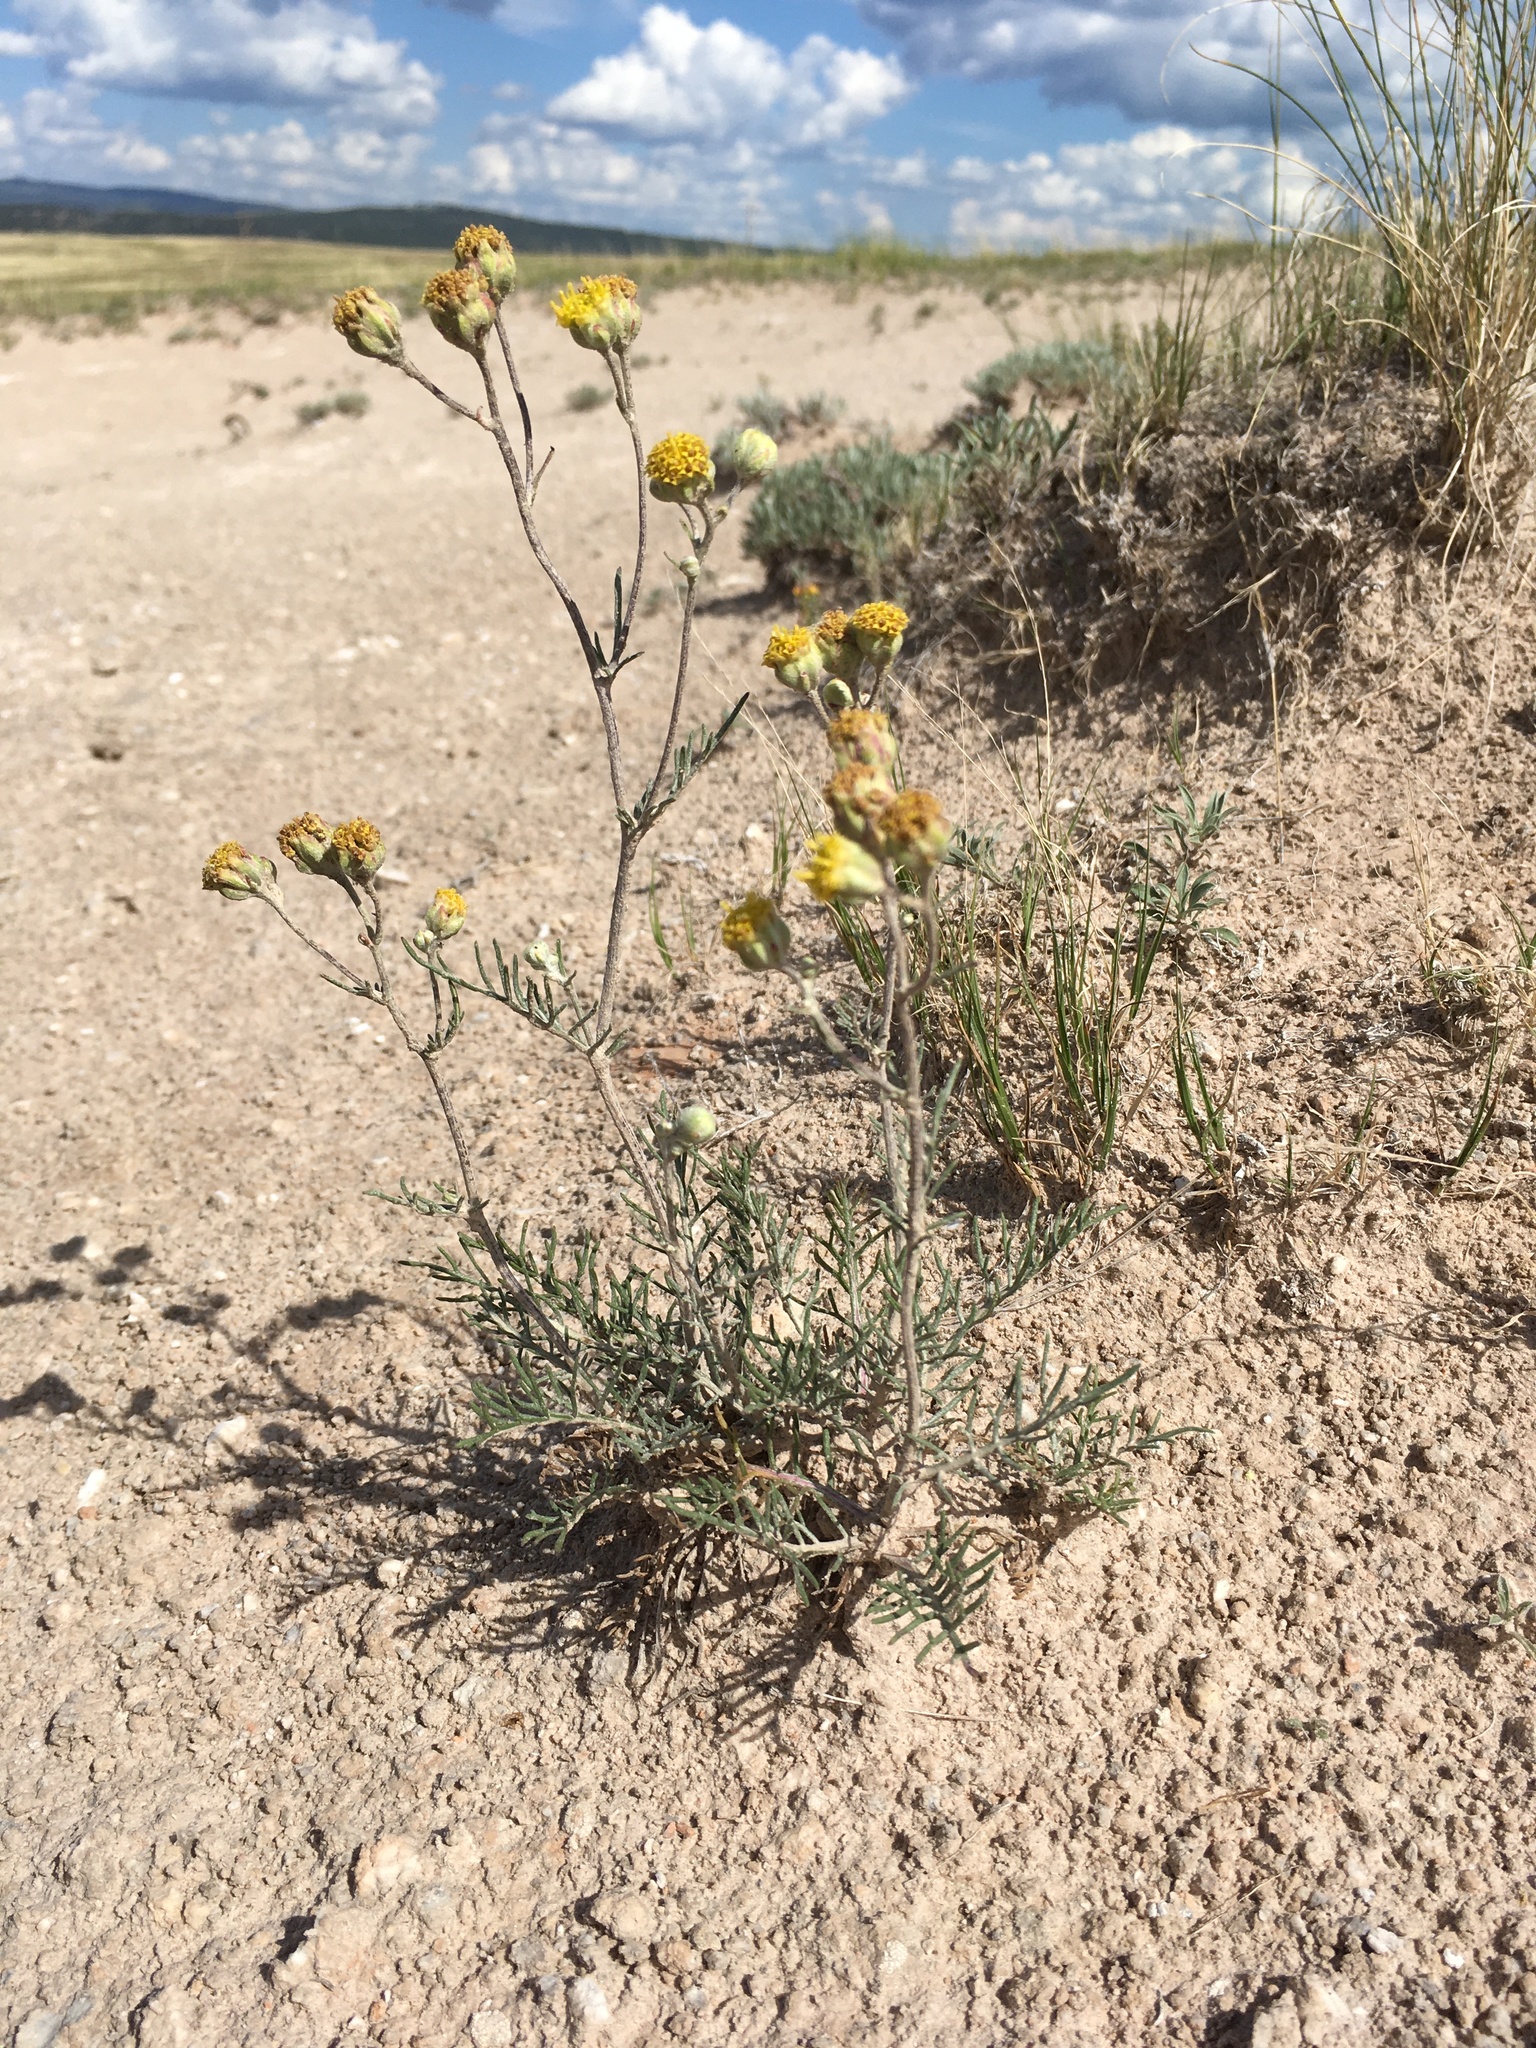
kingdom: Plantae
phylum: Tracheophyta
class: Magnoliopsida
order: Asterales
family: Asteraceae
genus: Hymenopappus
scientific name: Hymenopappus filifolius
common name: Columbia cutleaf
